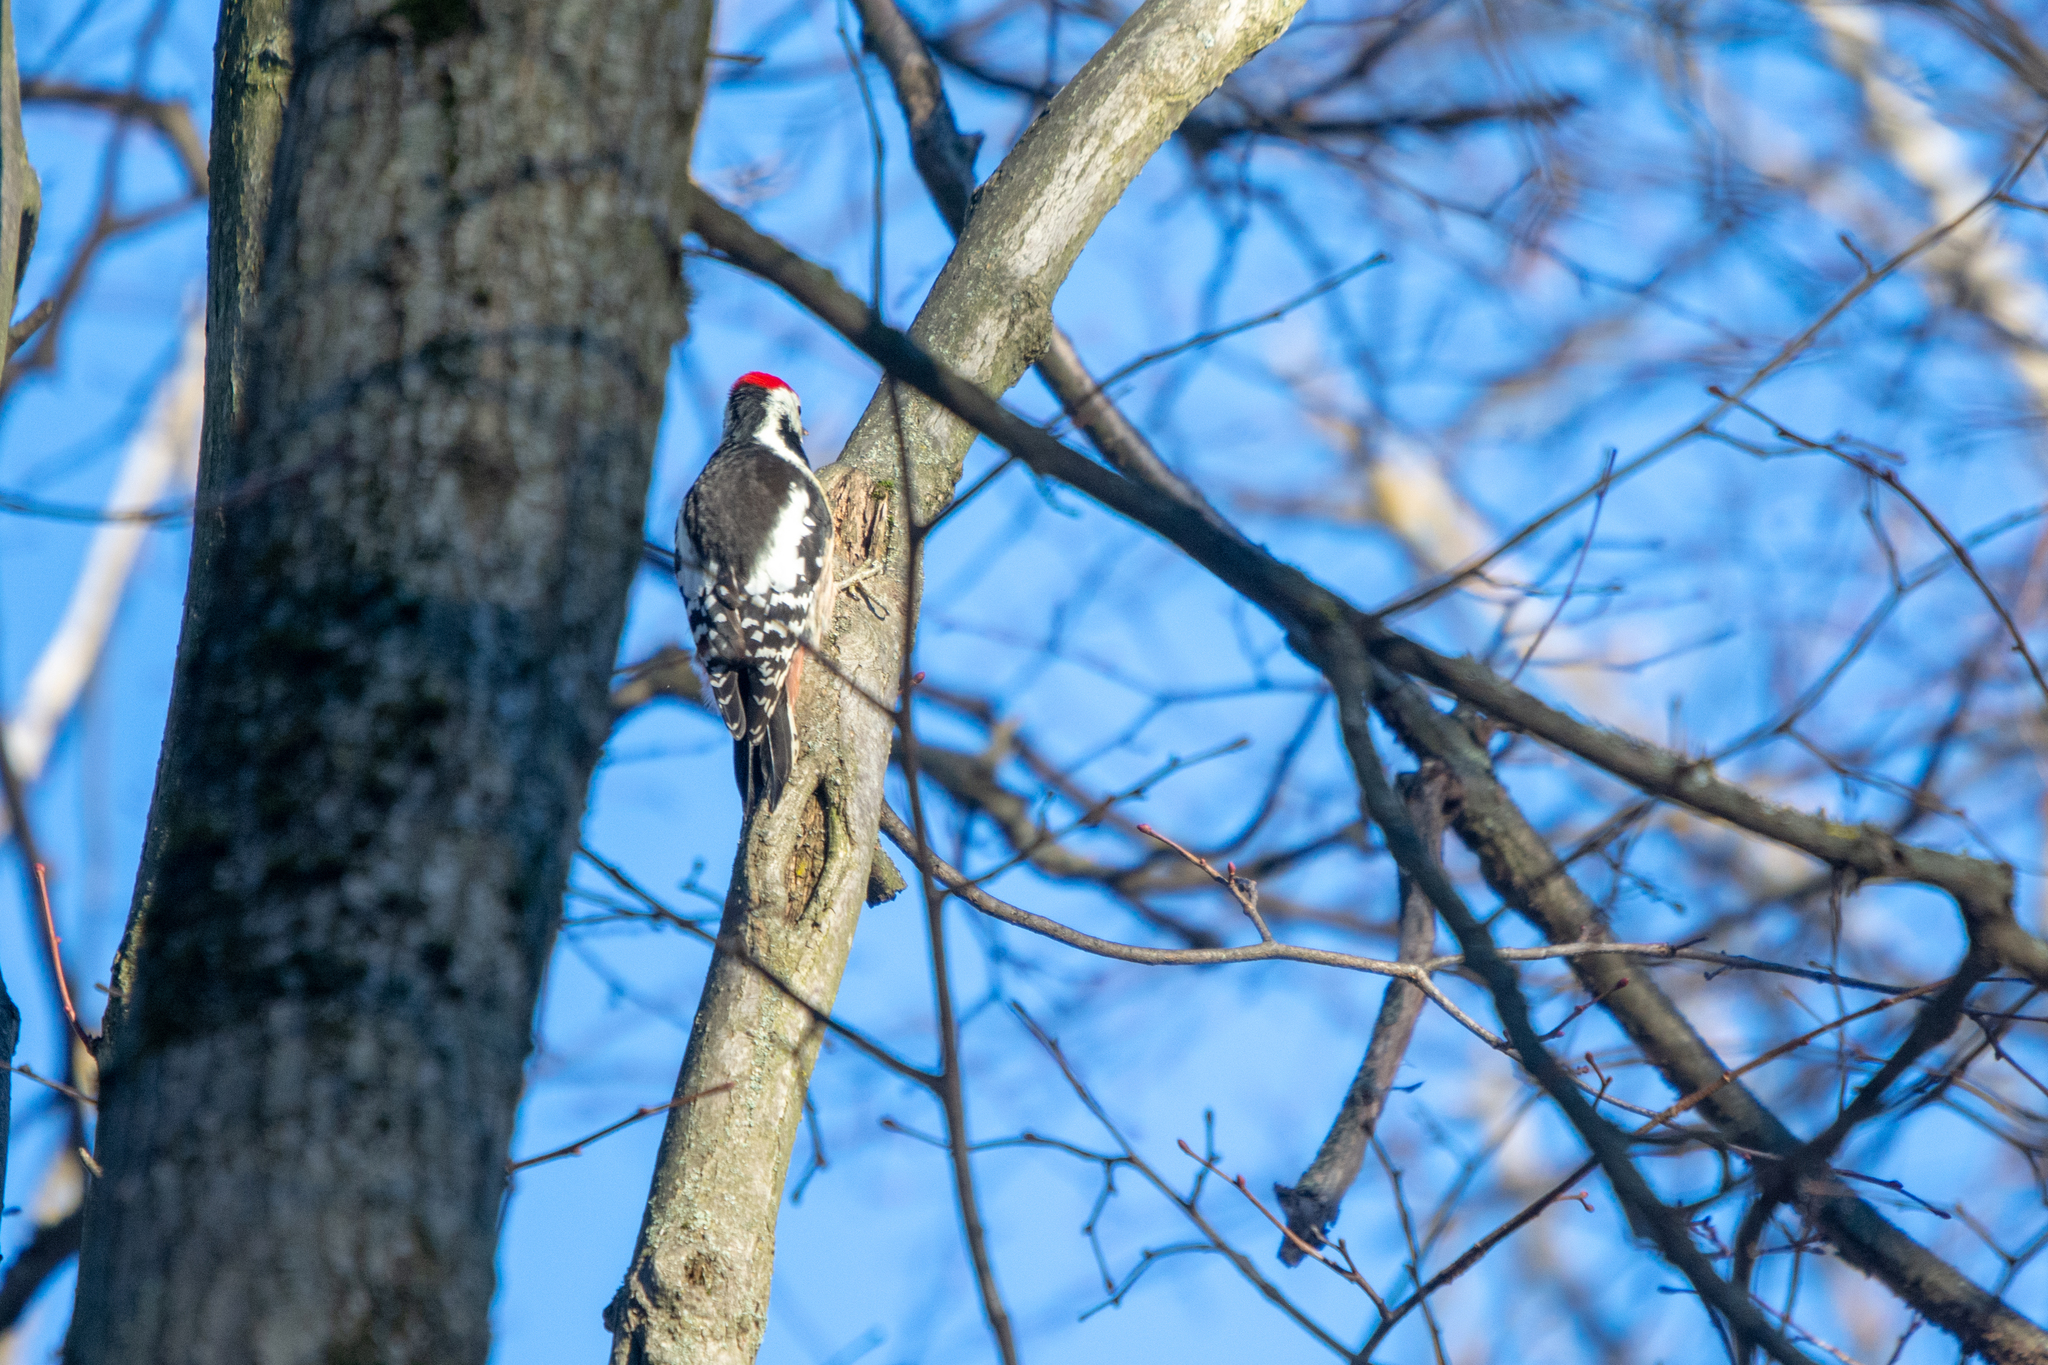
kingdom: Animalia
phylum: Chordata
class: Aves
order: Piciformes
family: Picidae
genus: Dendrocopos
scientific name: Dendrocopos leucotos
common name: White-backed woodpecker
